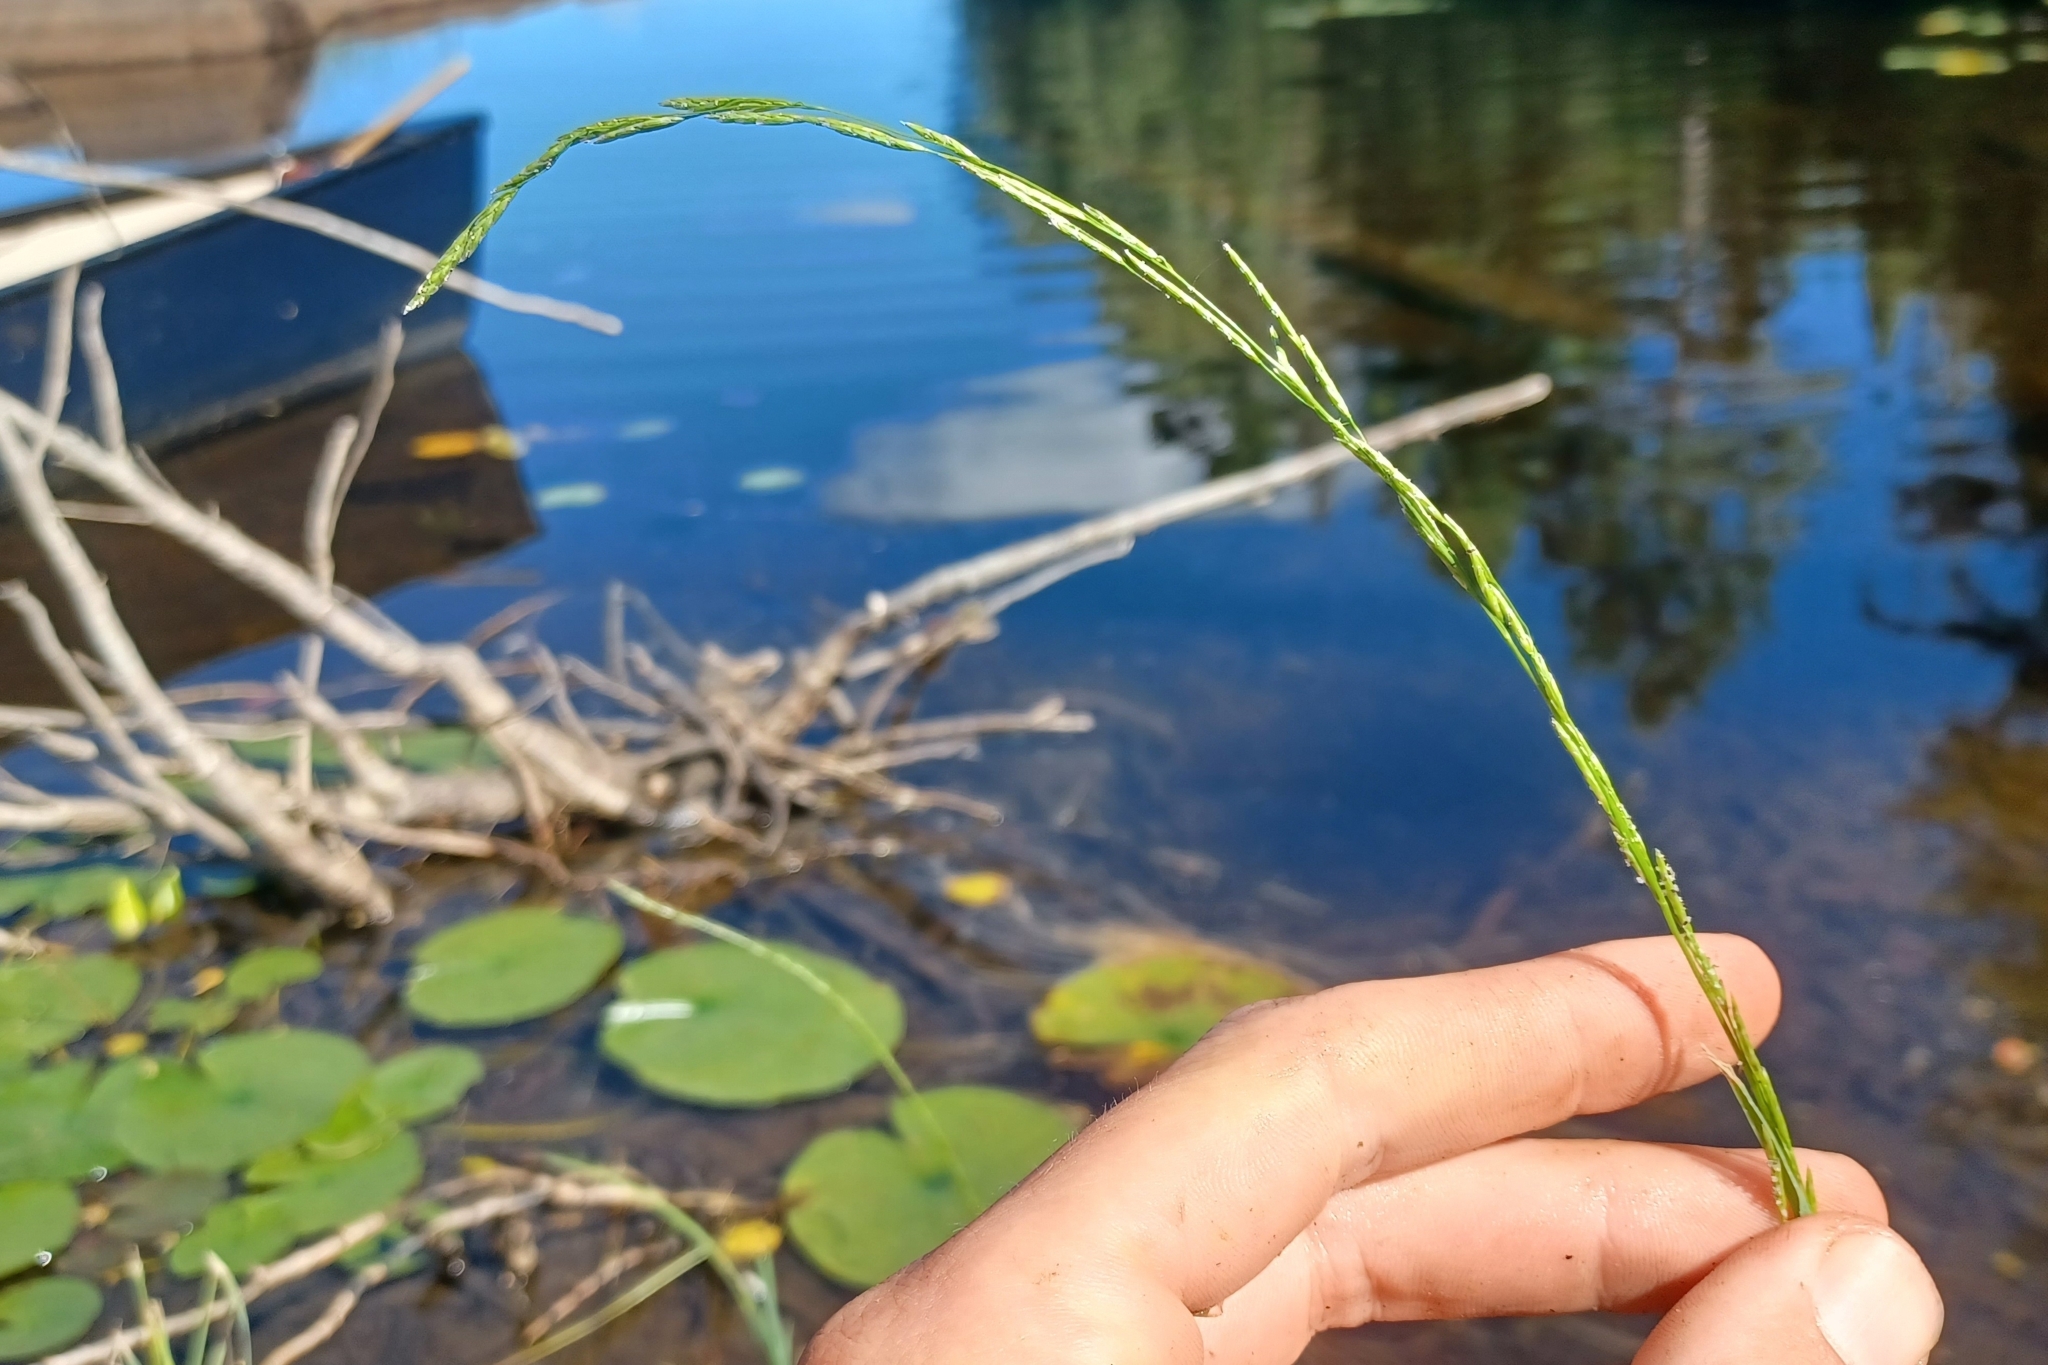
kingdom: Plantae
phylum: Tracheophyta
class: Liliopsida
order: Poales
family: Poaceae
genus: Glyceria
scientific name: Glyceria borealis
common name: Boreal glyceria
